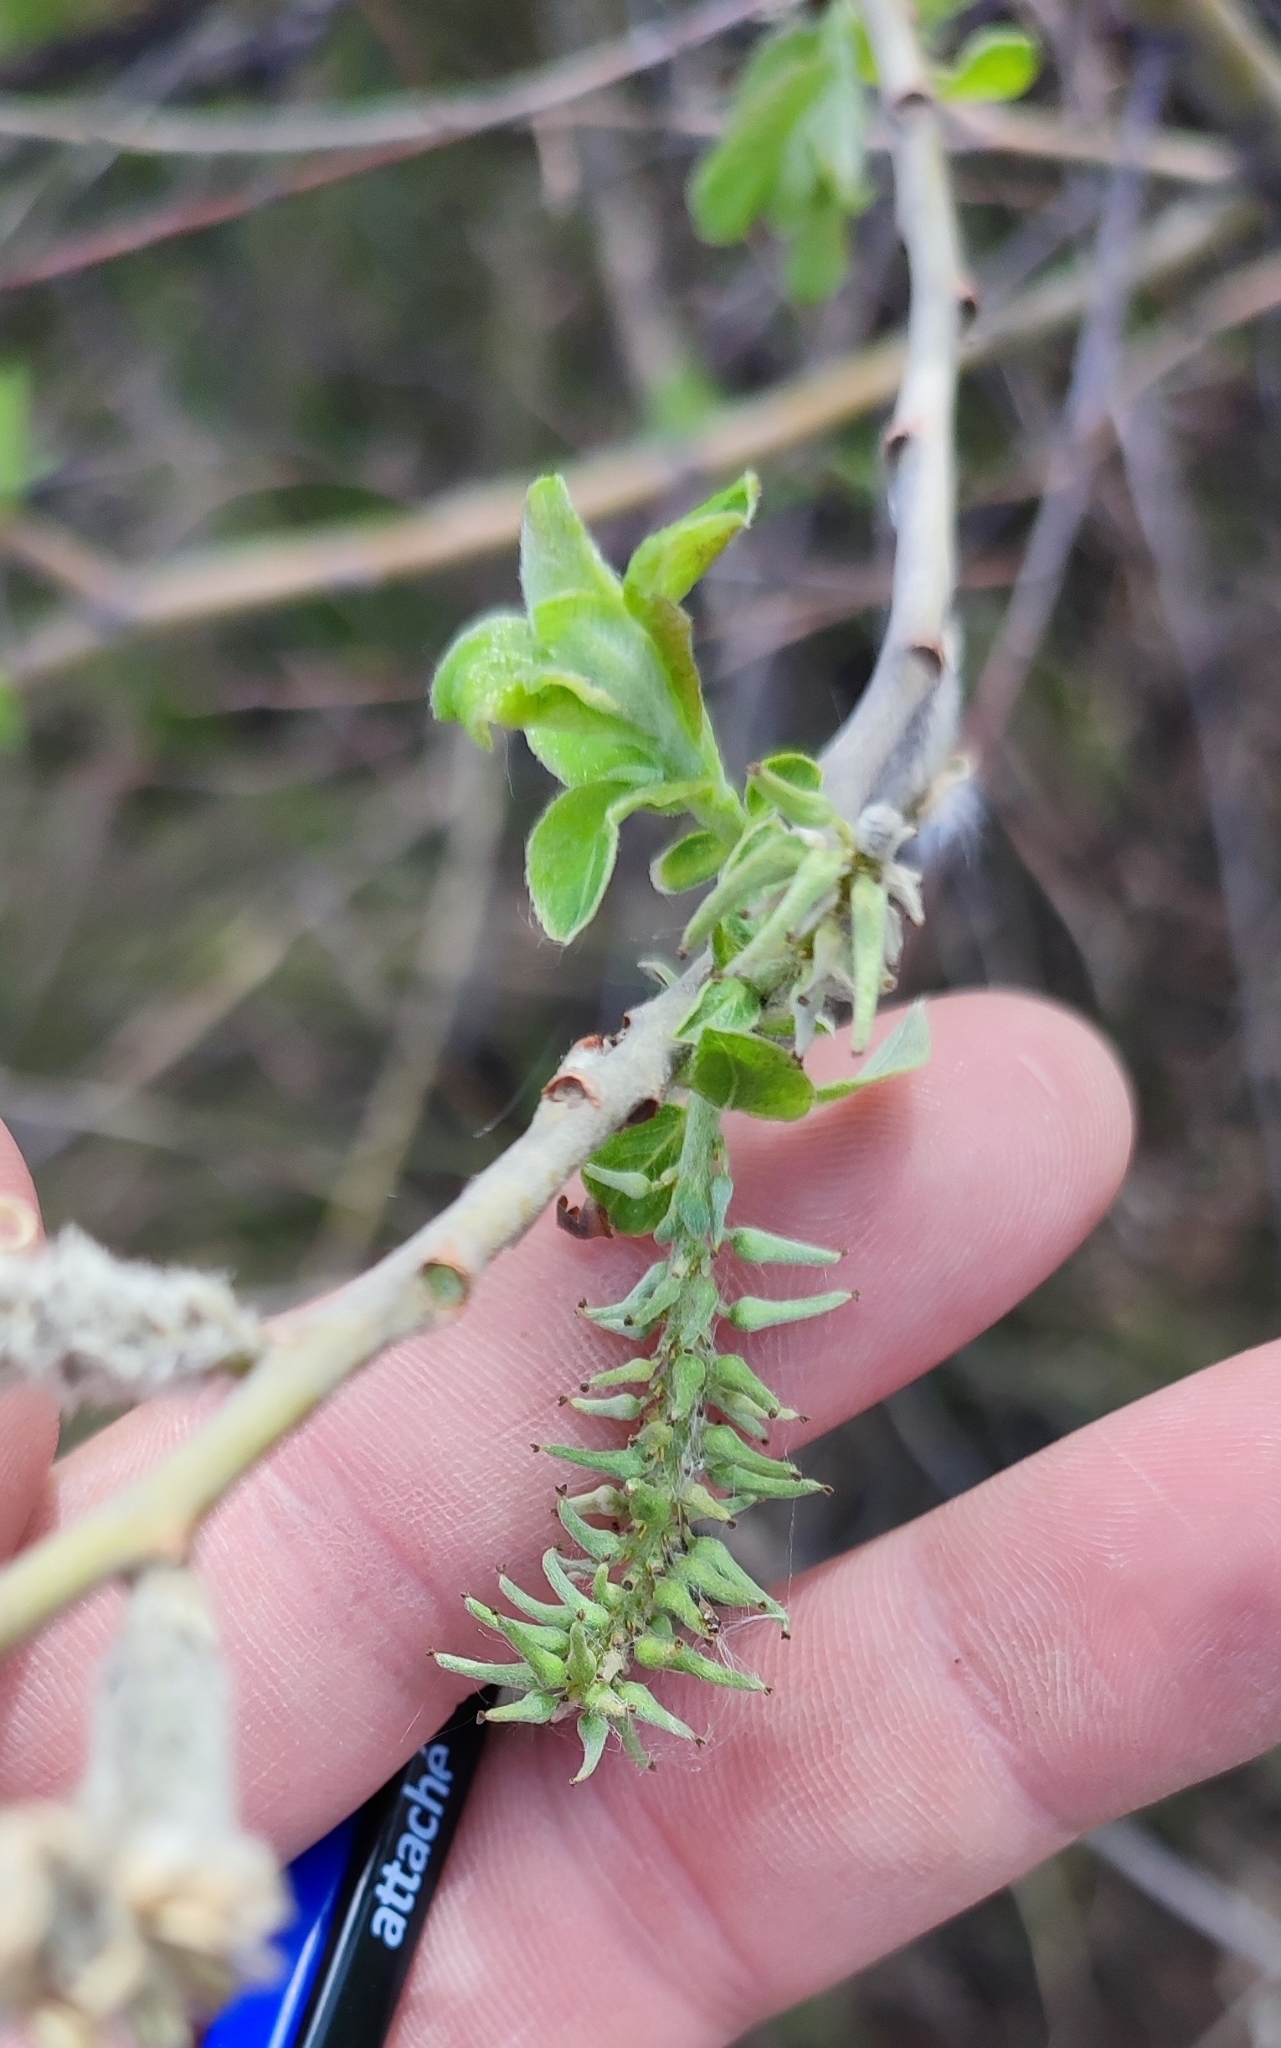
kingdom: Plantae
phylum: Tracheophyta
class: Magnoliopsida
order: Malpighiales
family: Salicaceae
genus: Salix
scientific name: Salix cinerea
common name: Common sallow
